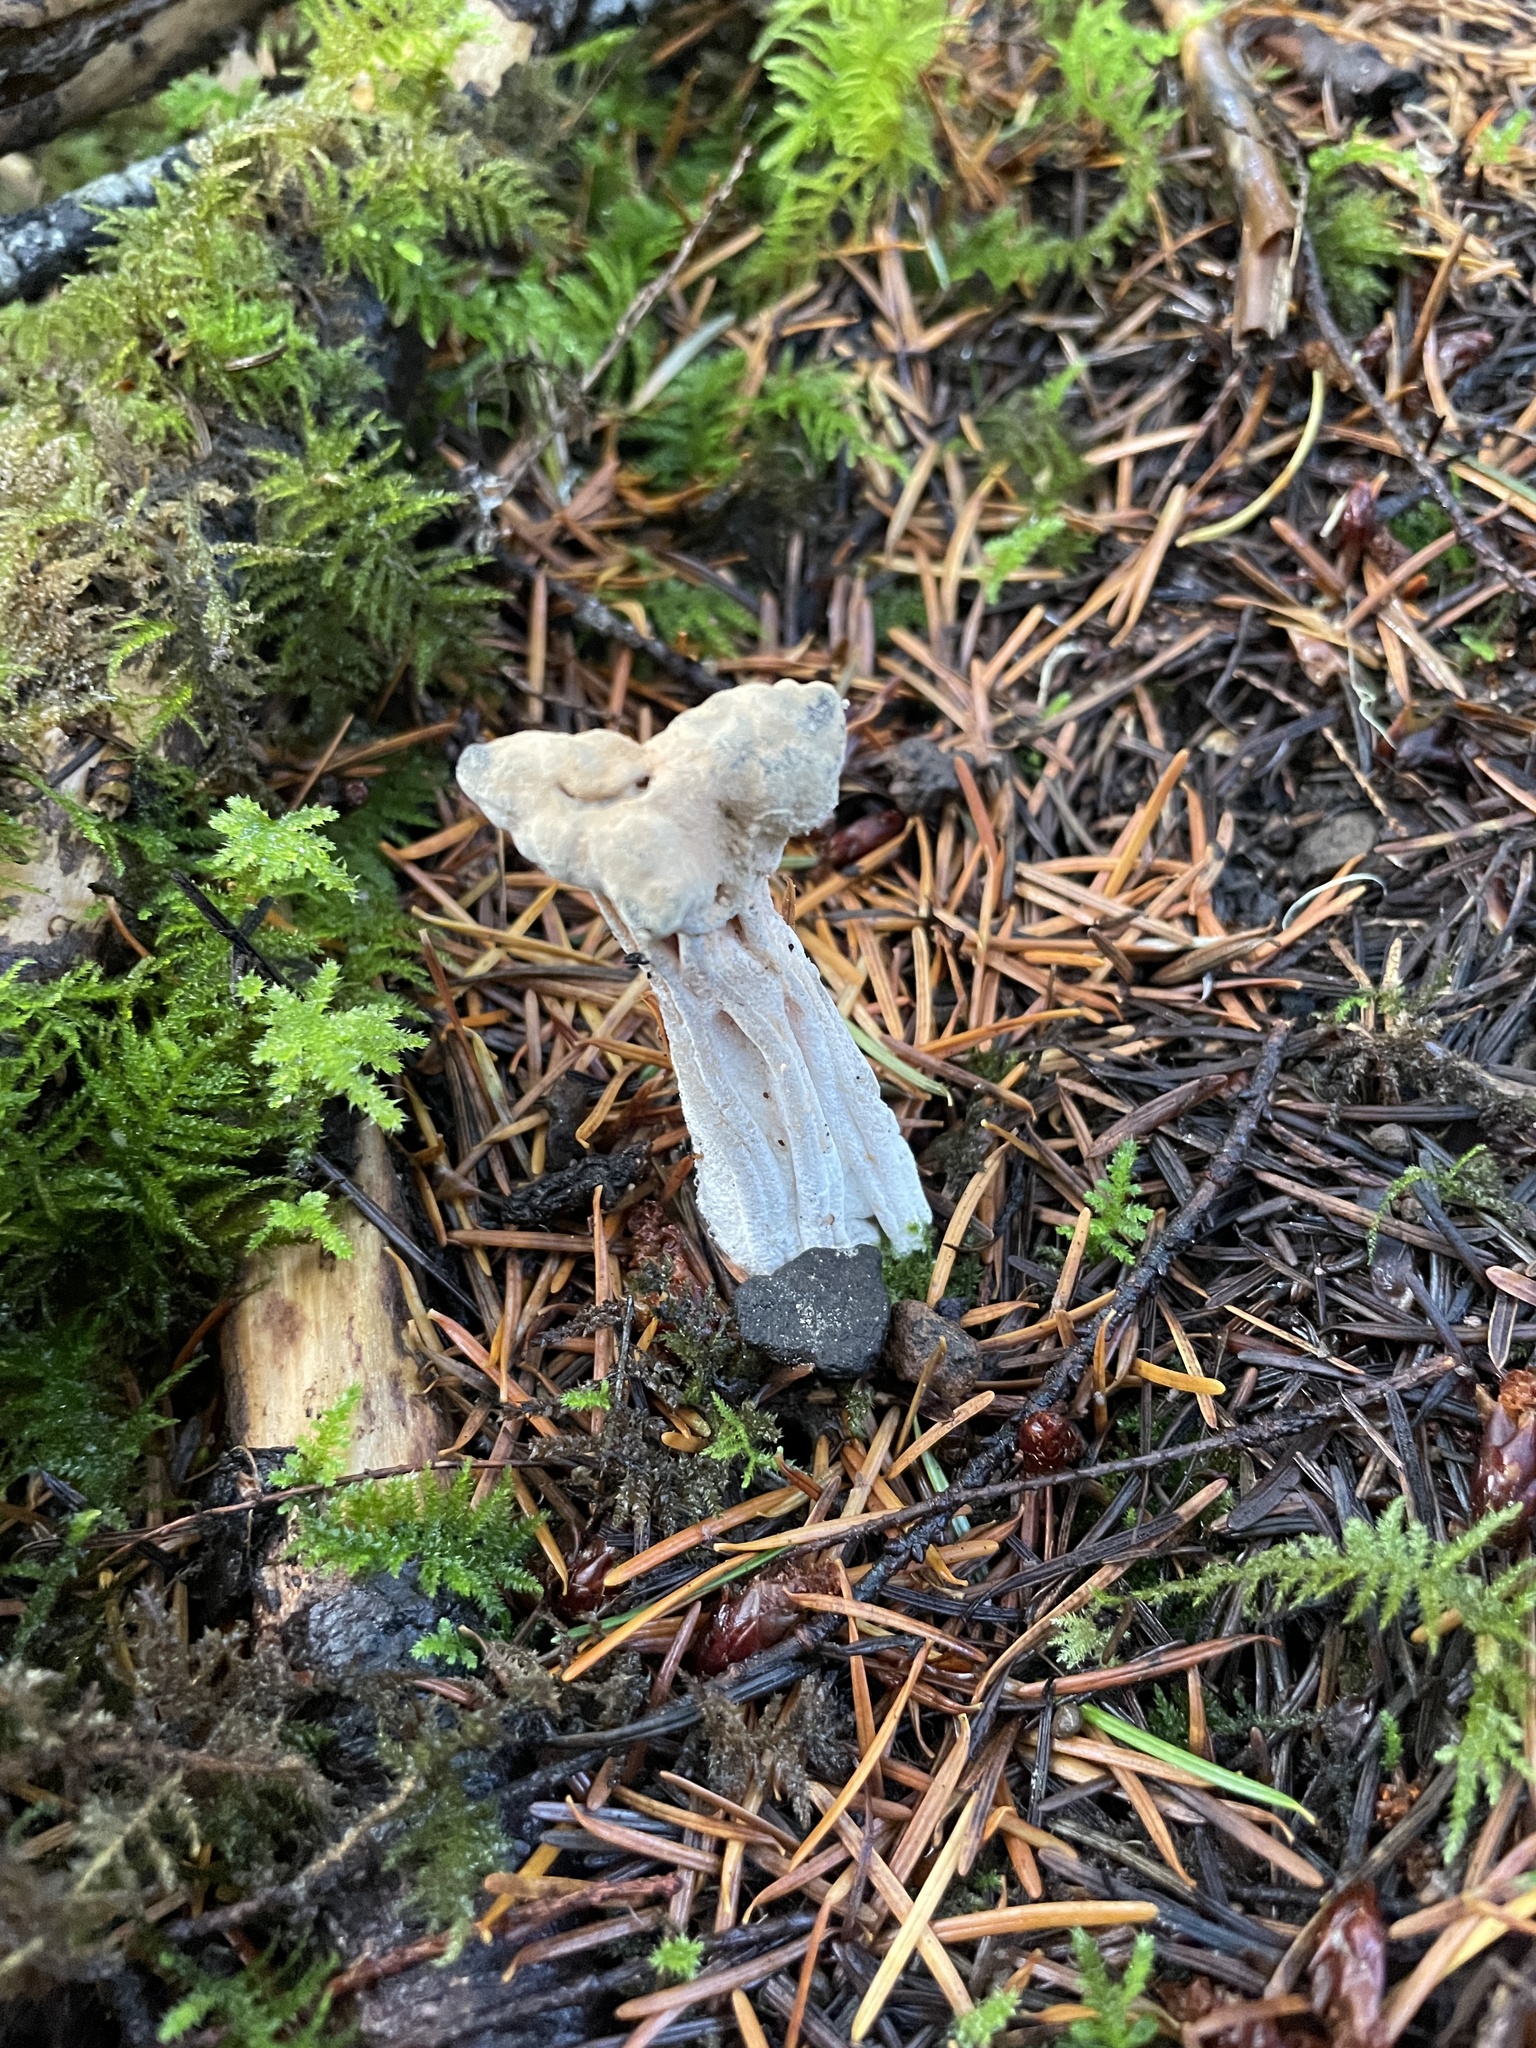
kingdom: Fungi
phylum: Ascomycota
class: Sordariomycetes
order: Hypocreales
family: Hypocreaceae
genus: Hypomyces
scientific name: Hypomyces cervinus
